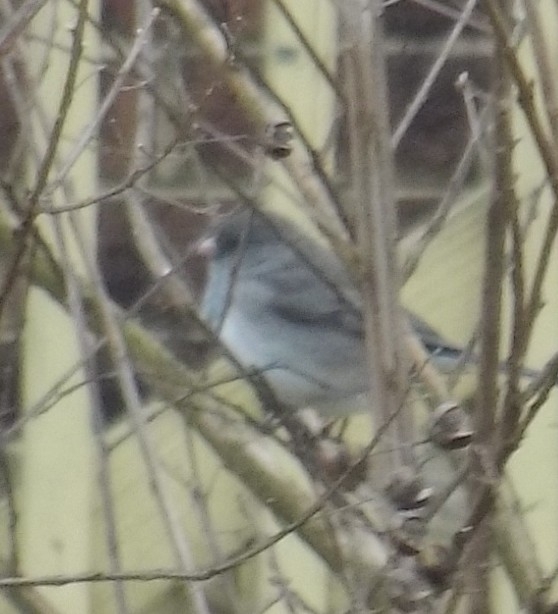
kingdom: Animalia
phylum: Chordata
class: Aves
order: Passeriformes
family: Passerellidae
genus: Junco
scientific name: Junco hyemalis
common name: Dark-eyed junco
